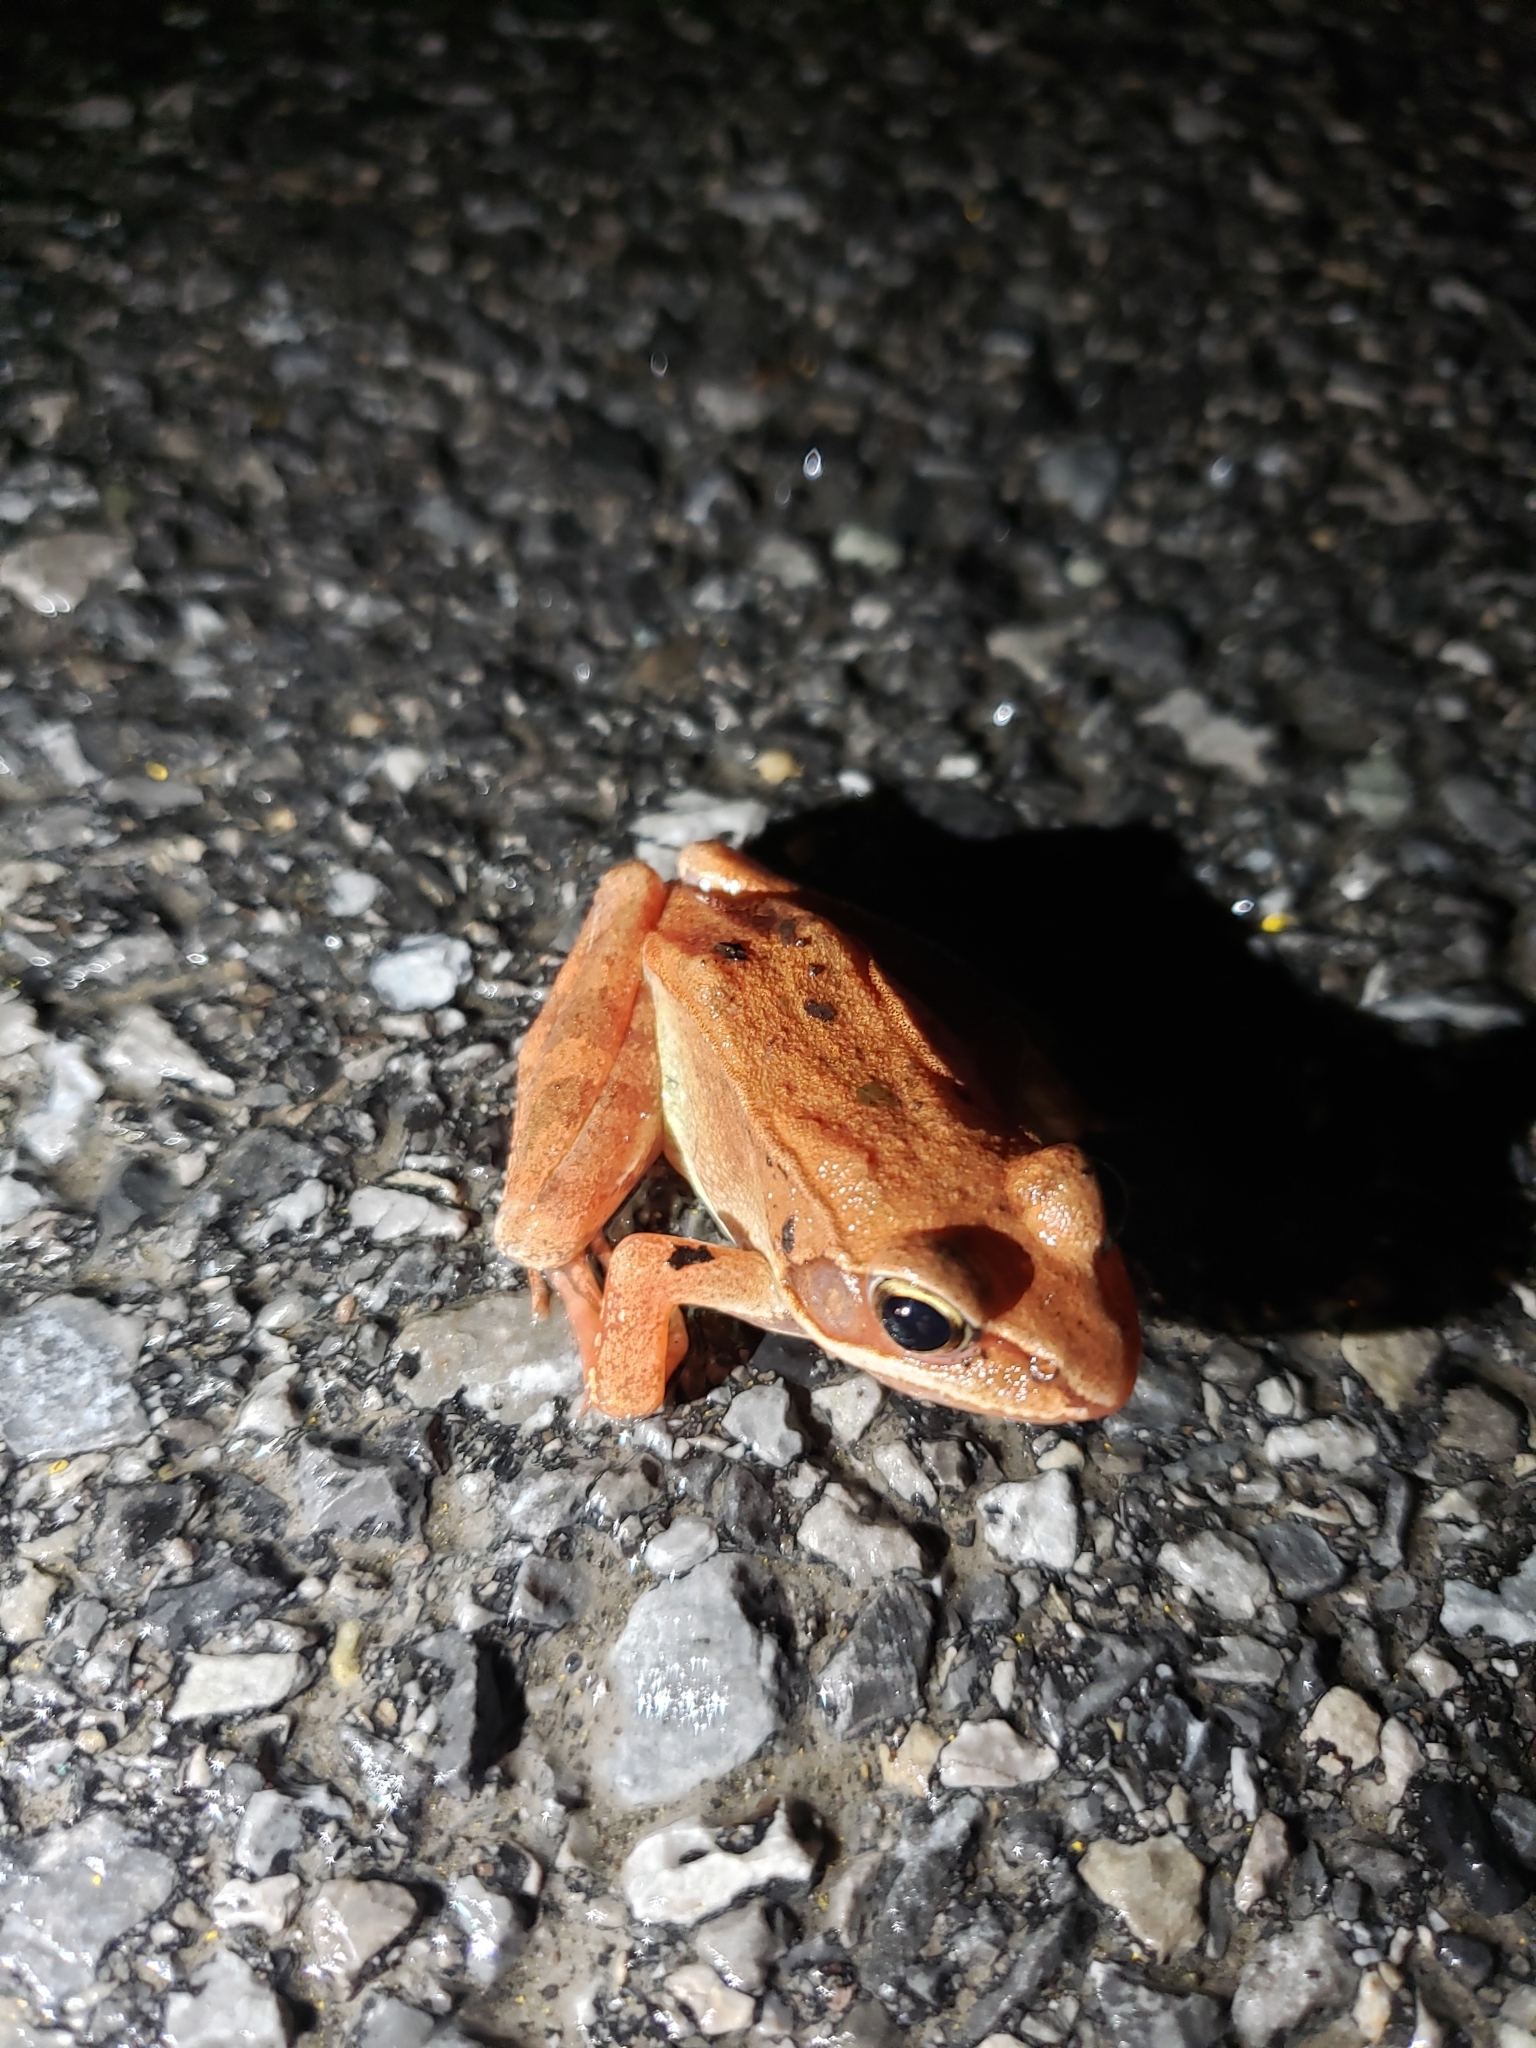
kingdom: Animalia
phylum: Chordata
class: Amphibia
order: Anura
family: Ranidae
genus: Lithobates
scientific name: Lithobates sylvaticus
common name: Wood frog
